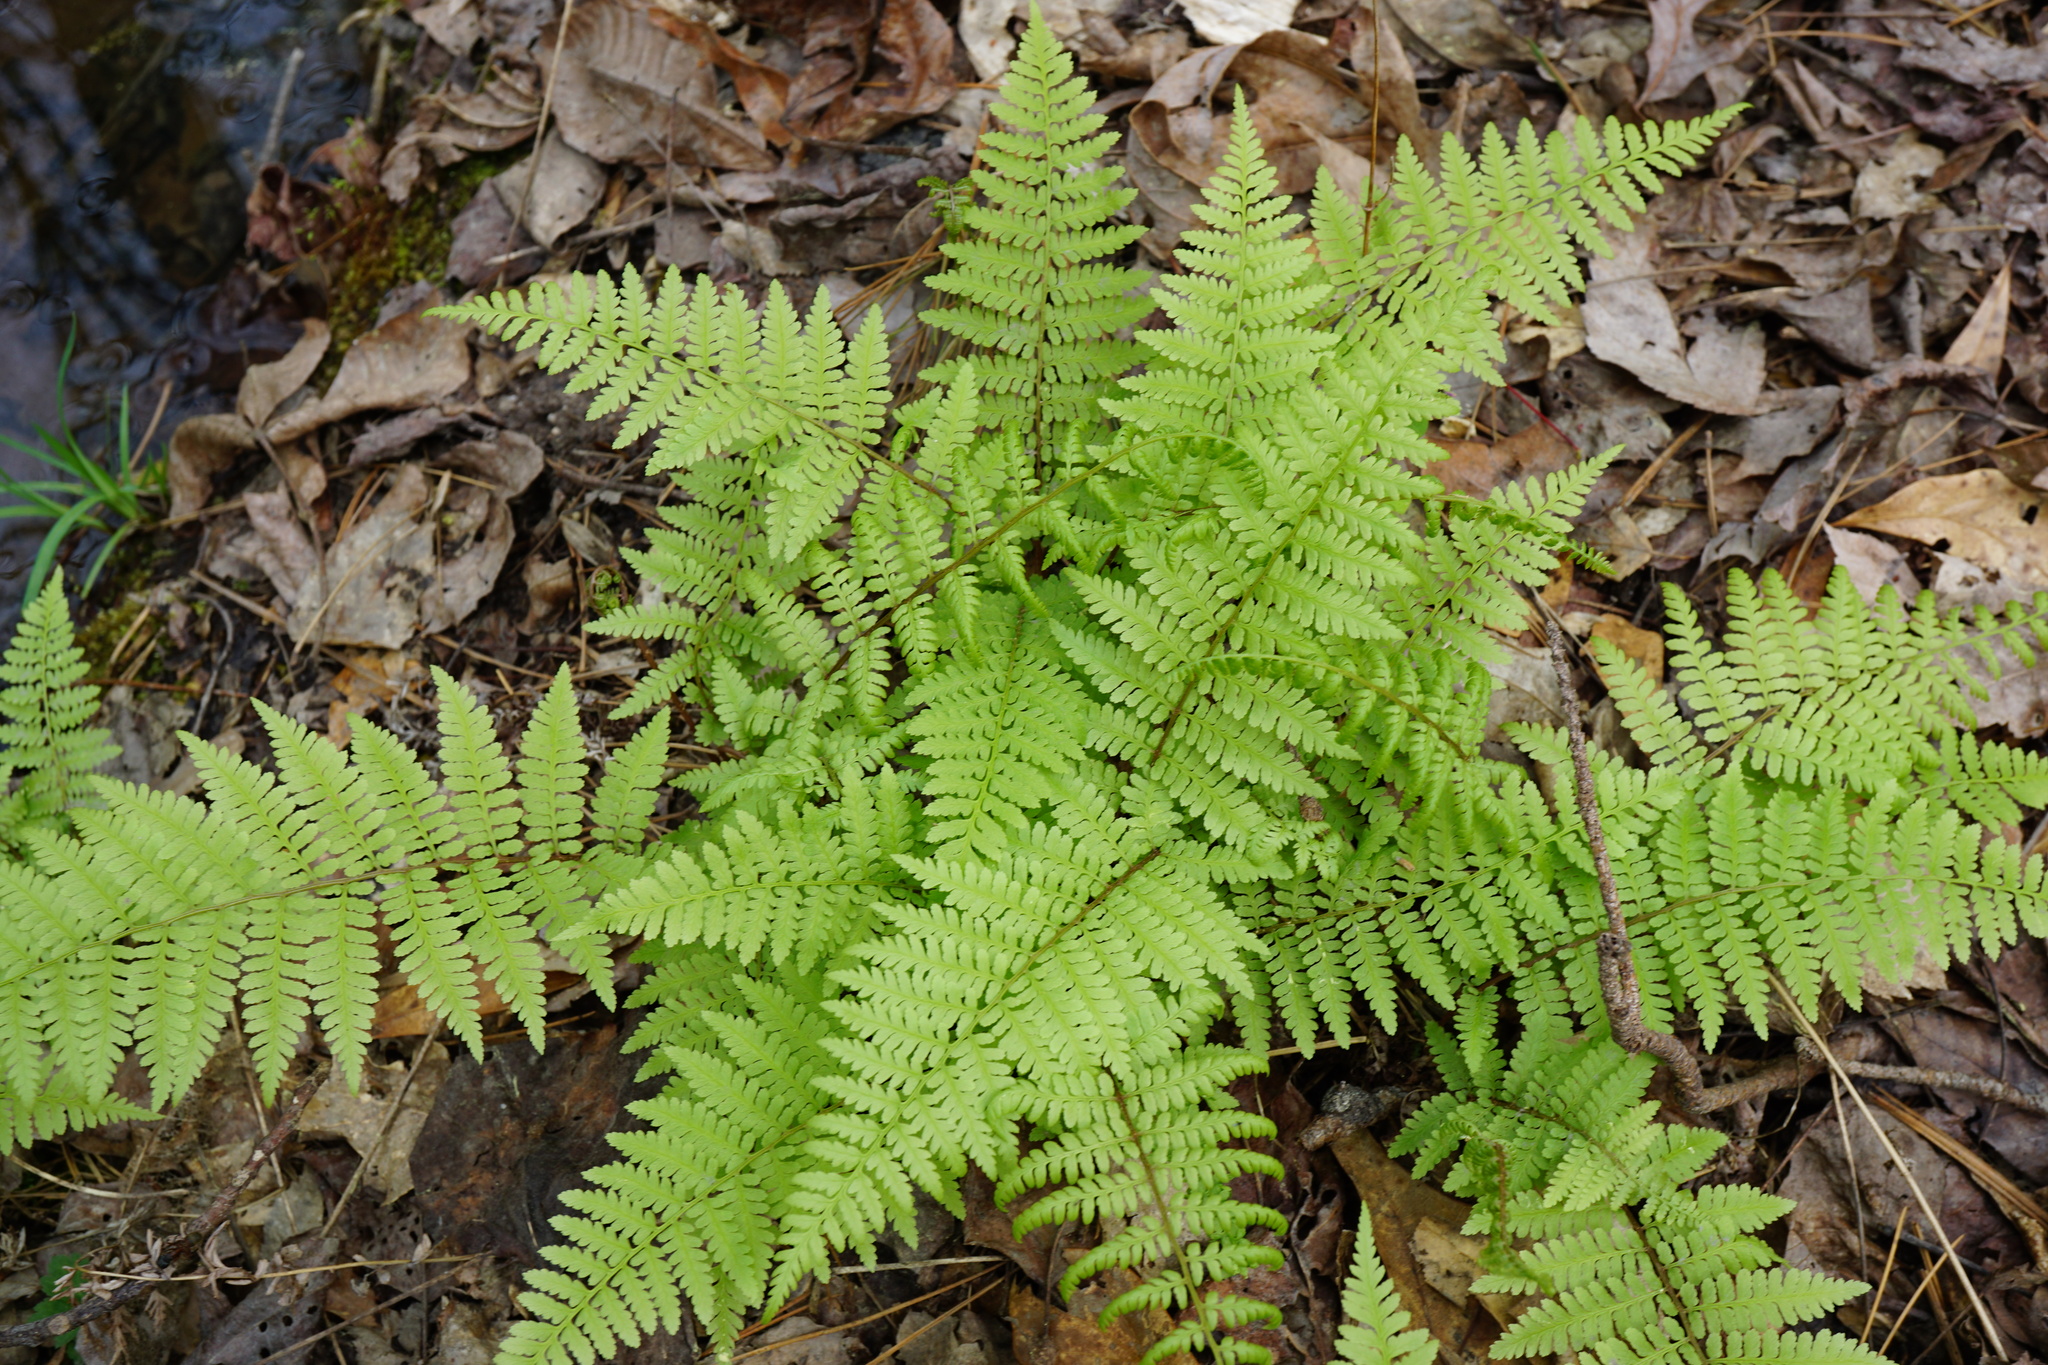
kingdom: Plantae
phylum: Tracheophyta
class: Polypodiopsida
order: Polypodiales
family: Athyriaceae
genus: Athyrium
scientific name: Athyrium asplenioides
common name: Southern lady fern
